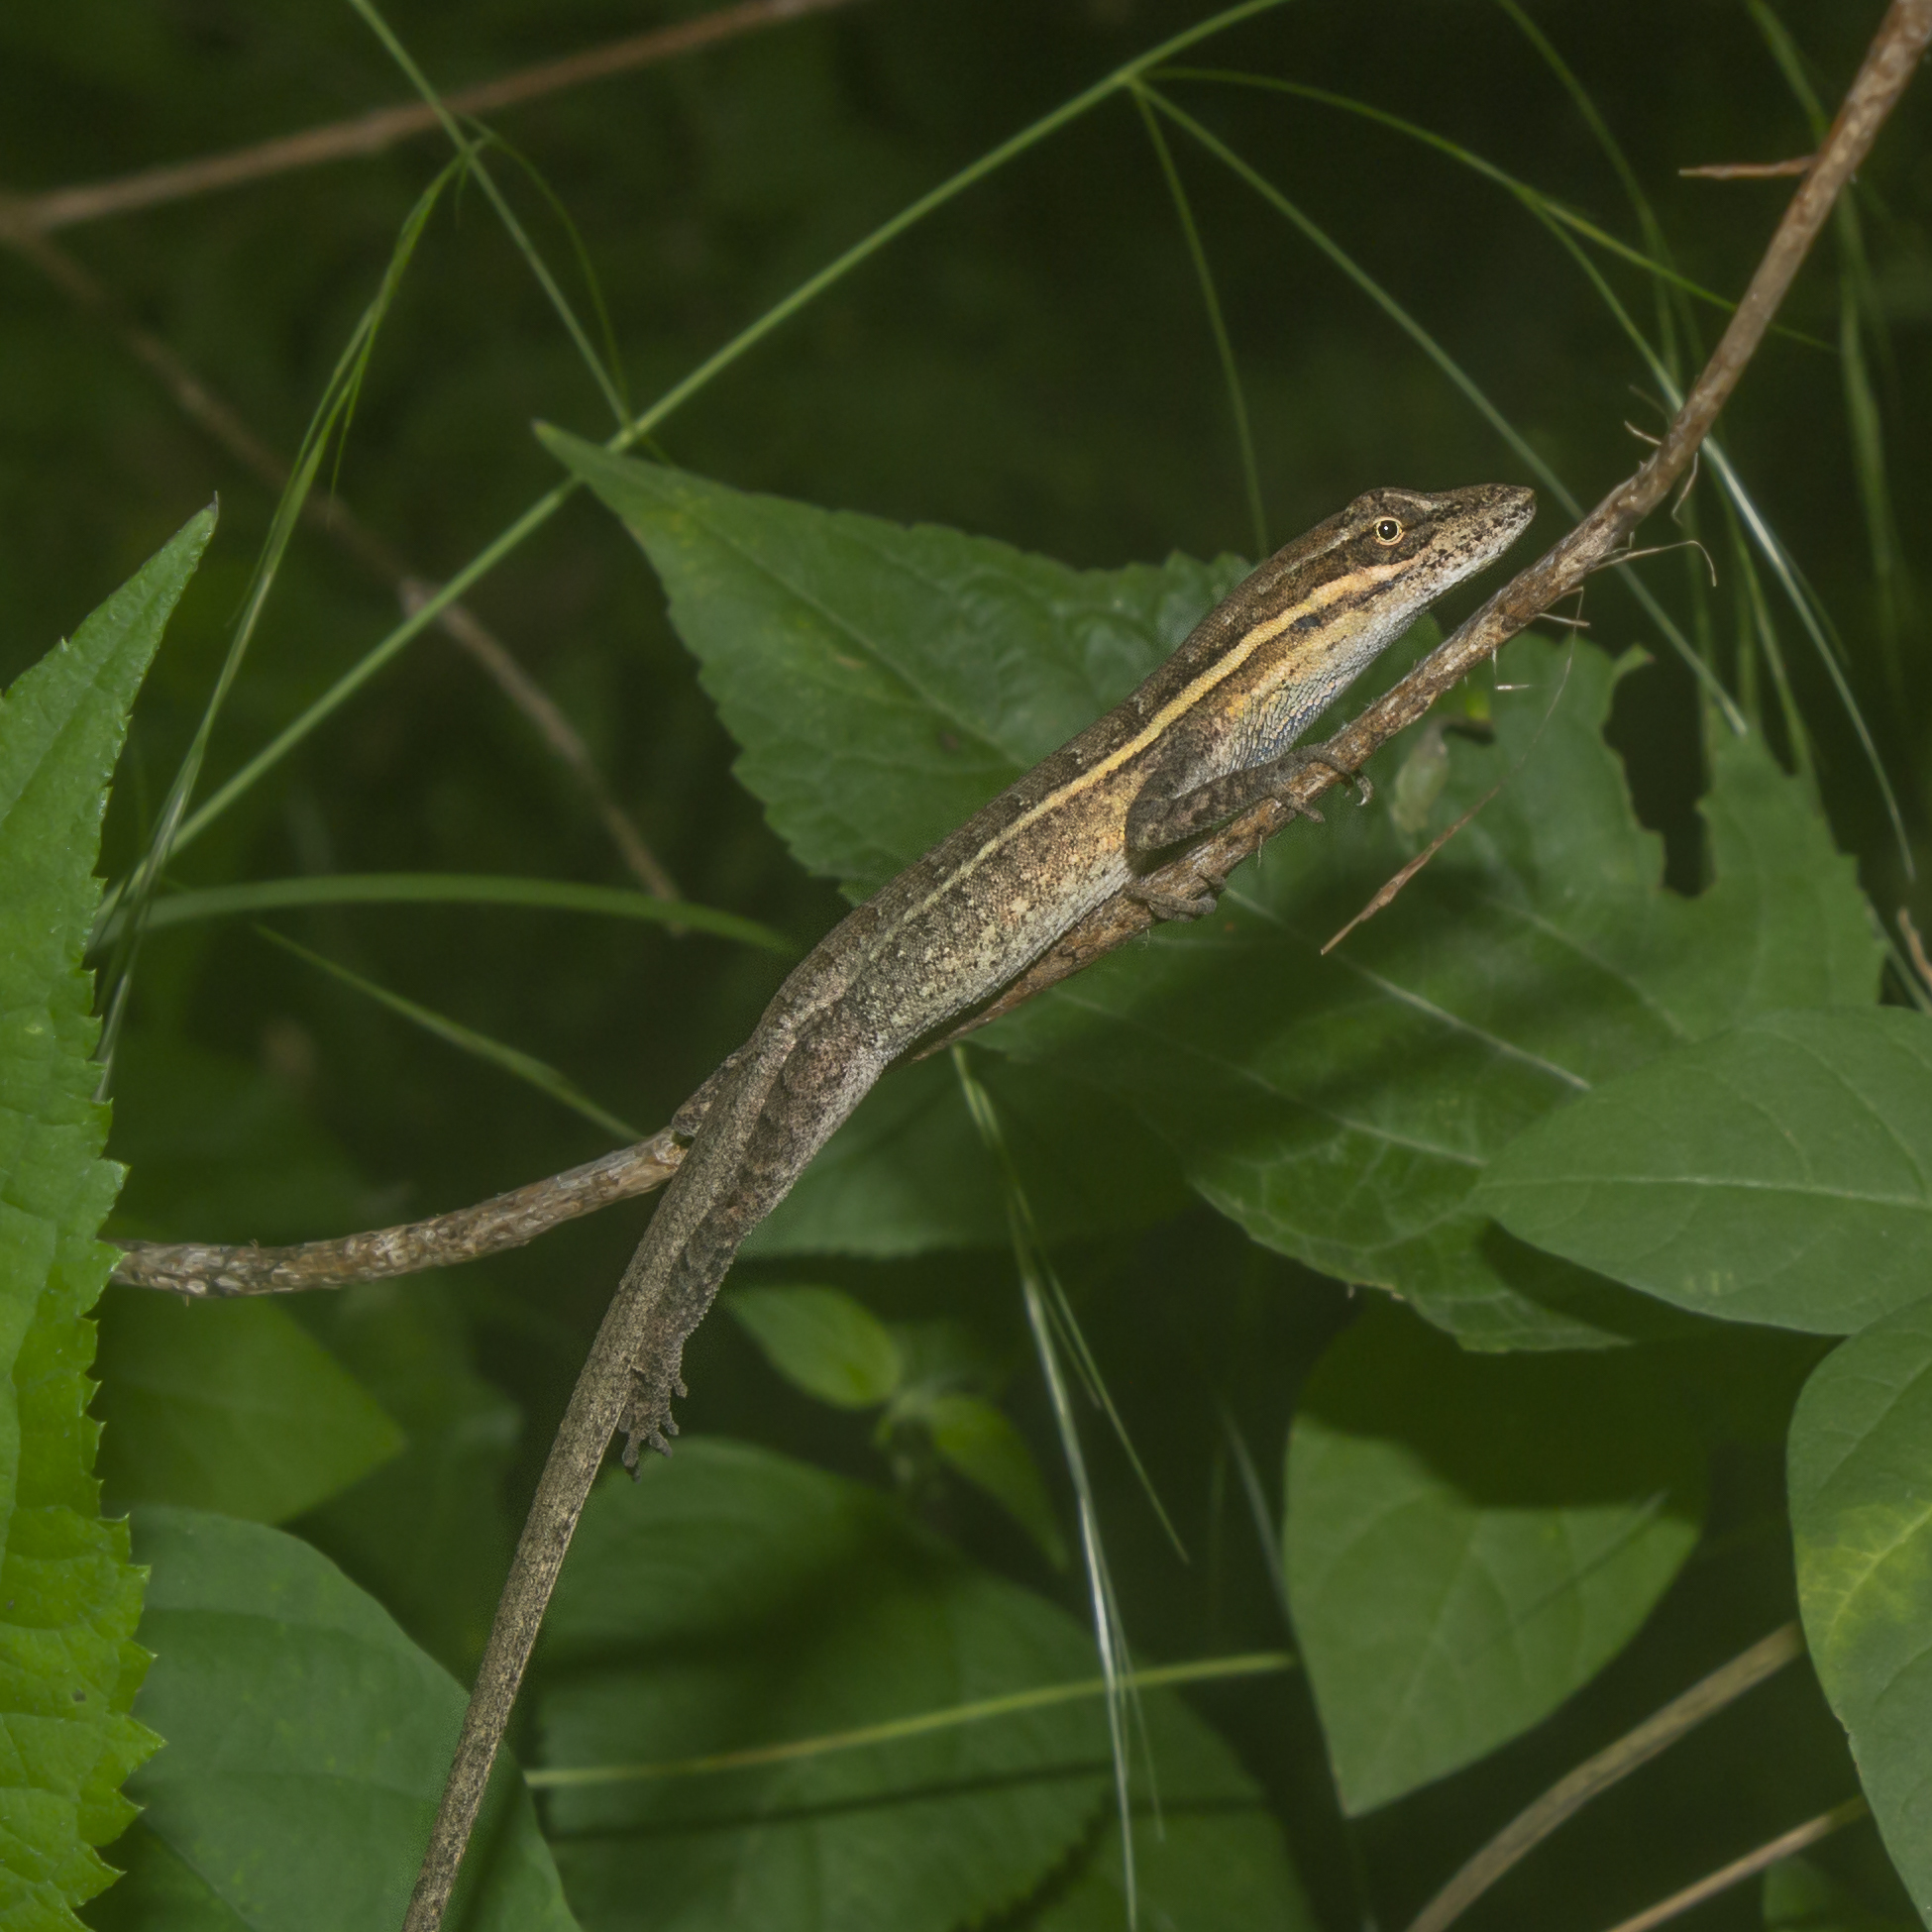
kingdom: Animalia
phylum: Chordata
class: Squamata
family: Dactyloidae
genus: Anolis
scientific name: Anolis auratus
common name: Grass anole
